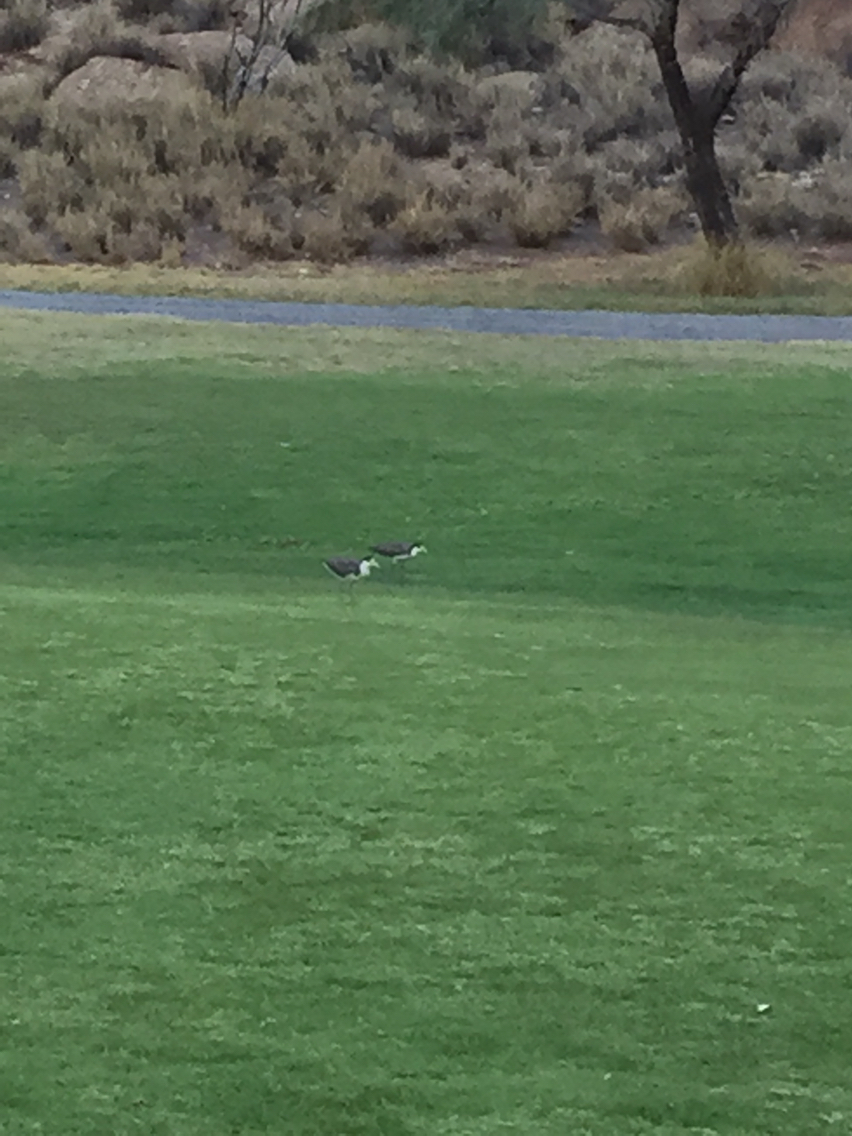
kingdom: Animalia
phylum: Chordata
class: Aves
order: Charadriiformes
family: Charadriidae
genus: Vanellus
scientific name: Vanellus miles
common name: Masked lapwing
